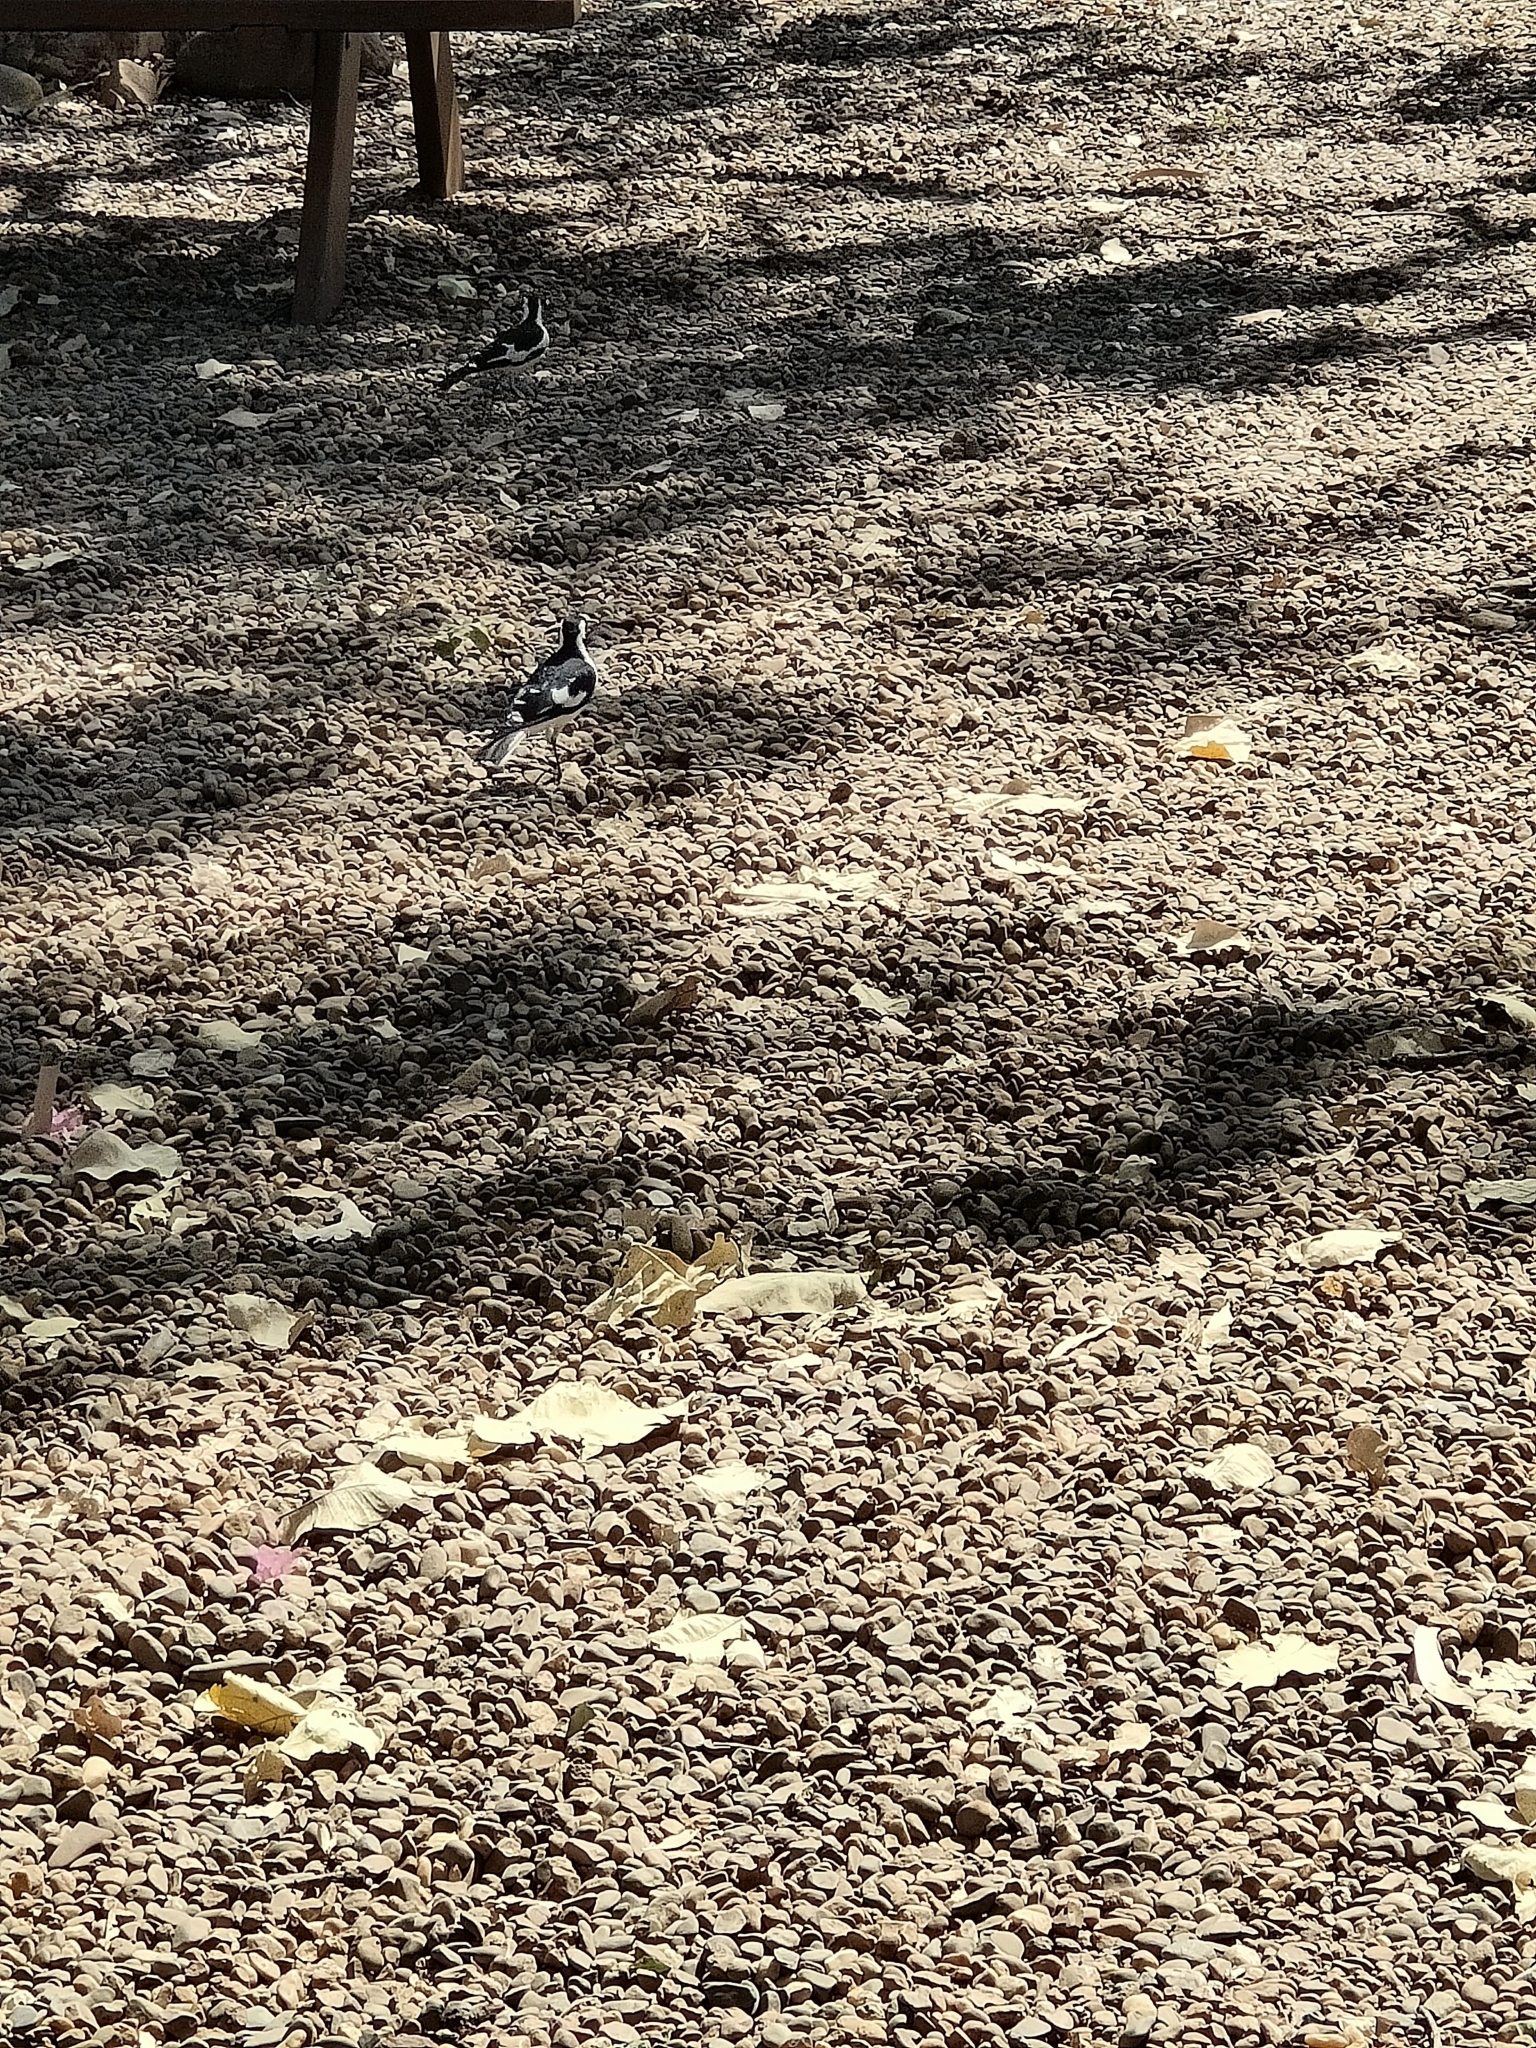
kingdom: Animalia
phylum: Chordata
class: Aves
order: Passeriformes
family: Monarchidae
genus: Grallina
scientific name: Grallina cyanoleuca
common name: Magpie-lark
